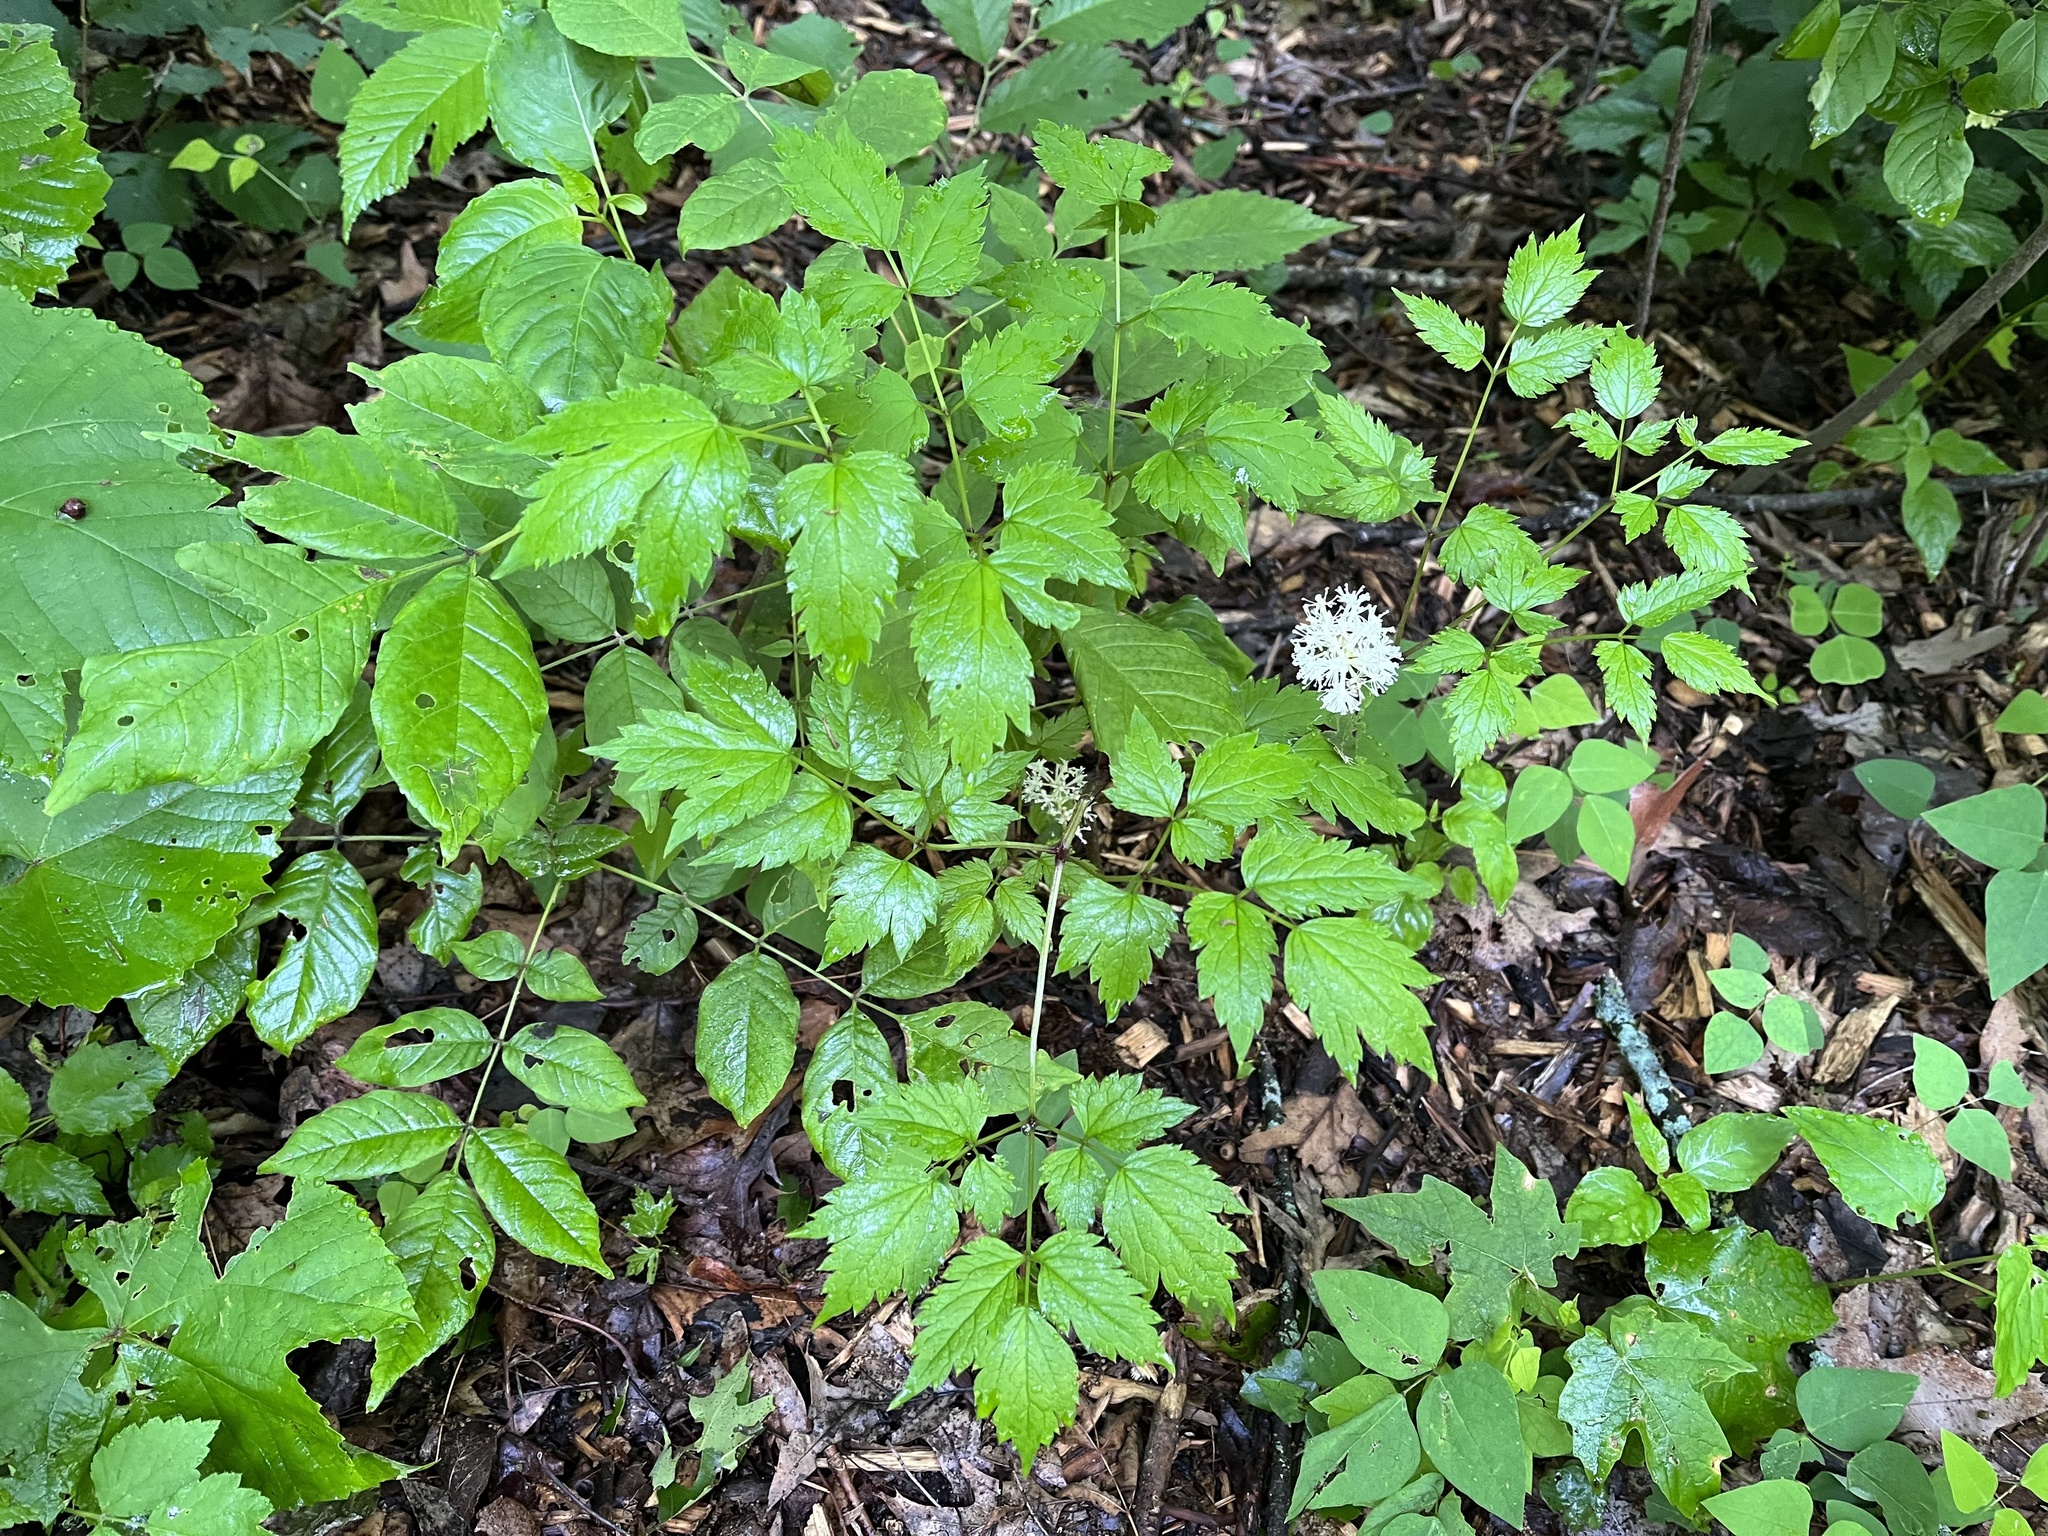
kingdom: Plantae
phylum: Tracheophyta
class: Magnoliopsida
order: Ranunculales
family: Ranunculaceae
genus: Actaea
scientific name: Actaea pachypoda
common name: Doll's-eyes
